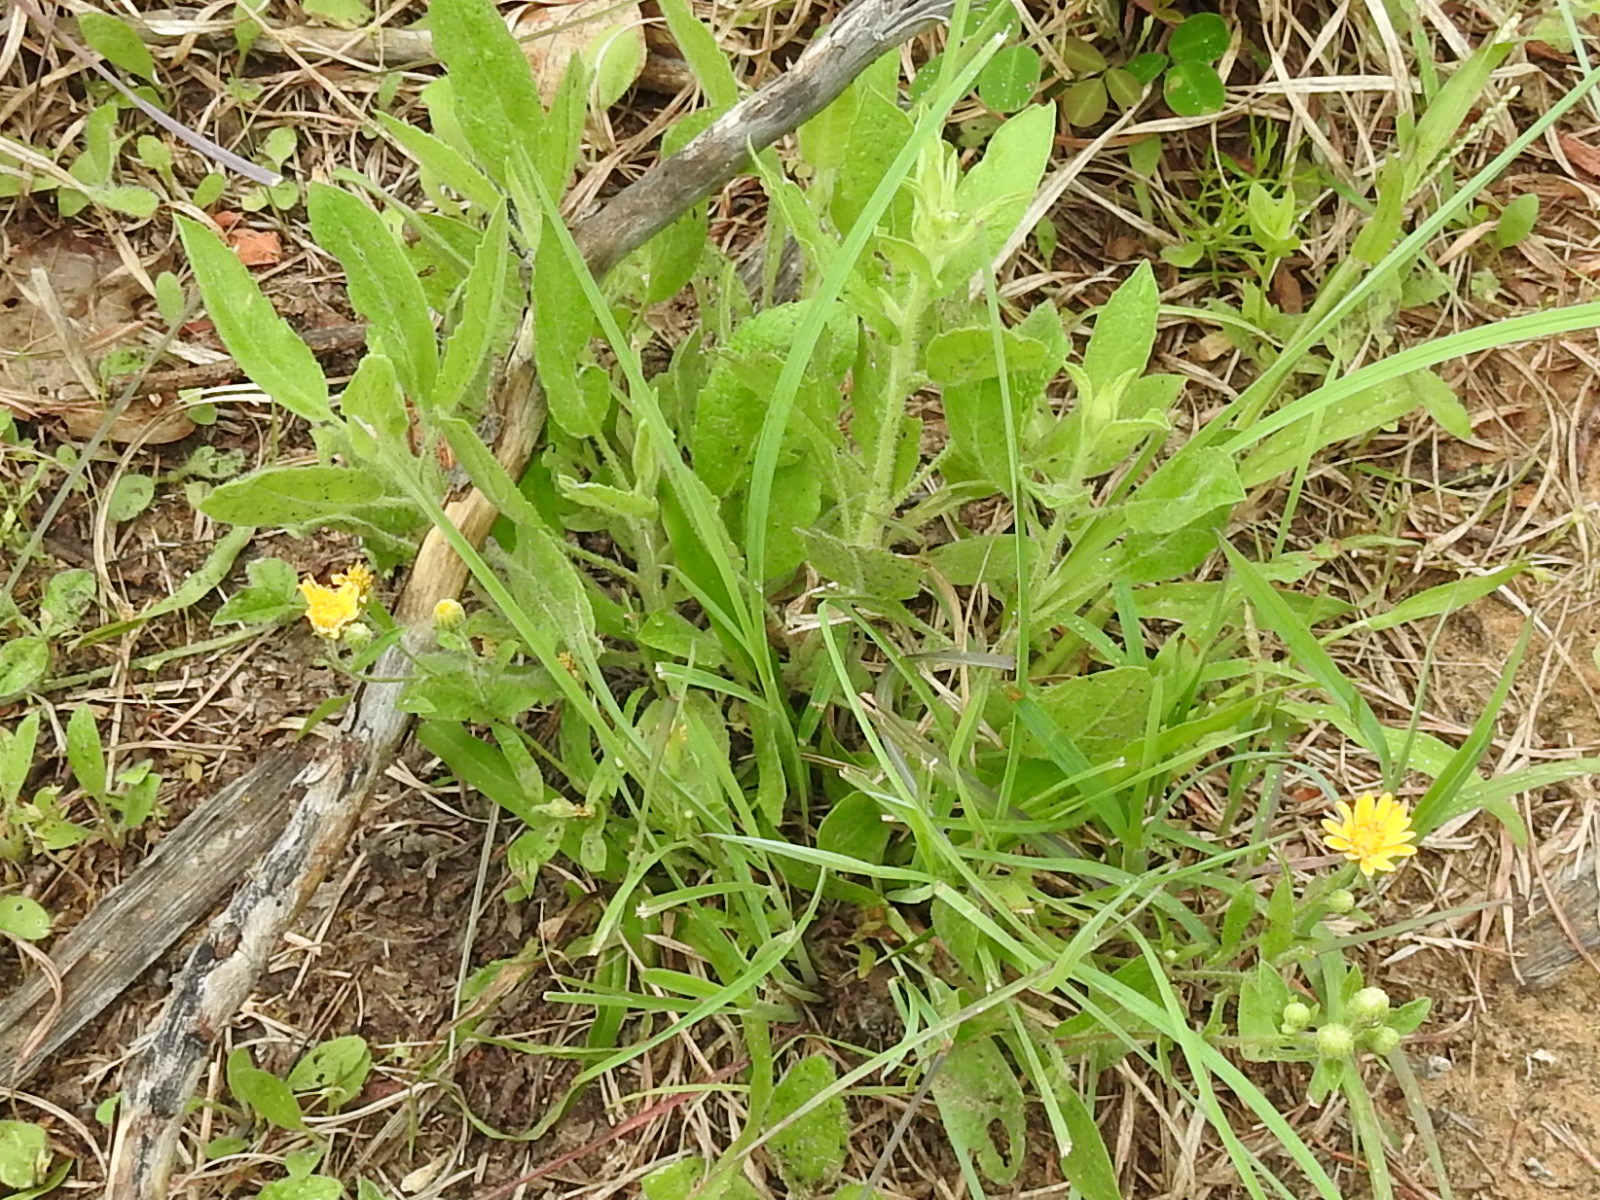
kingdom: Plantae
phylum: Tracheophyta
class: Magnoliopsida
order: Asterales
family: Asteraceae
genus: Heterotheca
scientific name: Heterotheca subaxillaris
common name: Camphorweed
